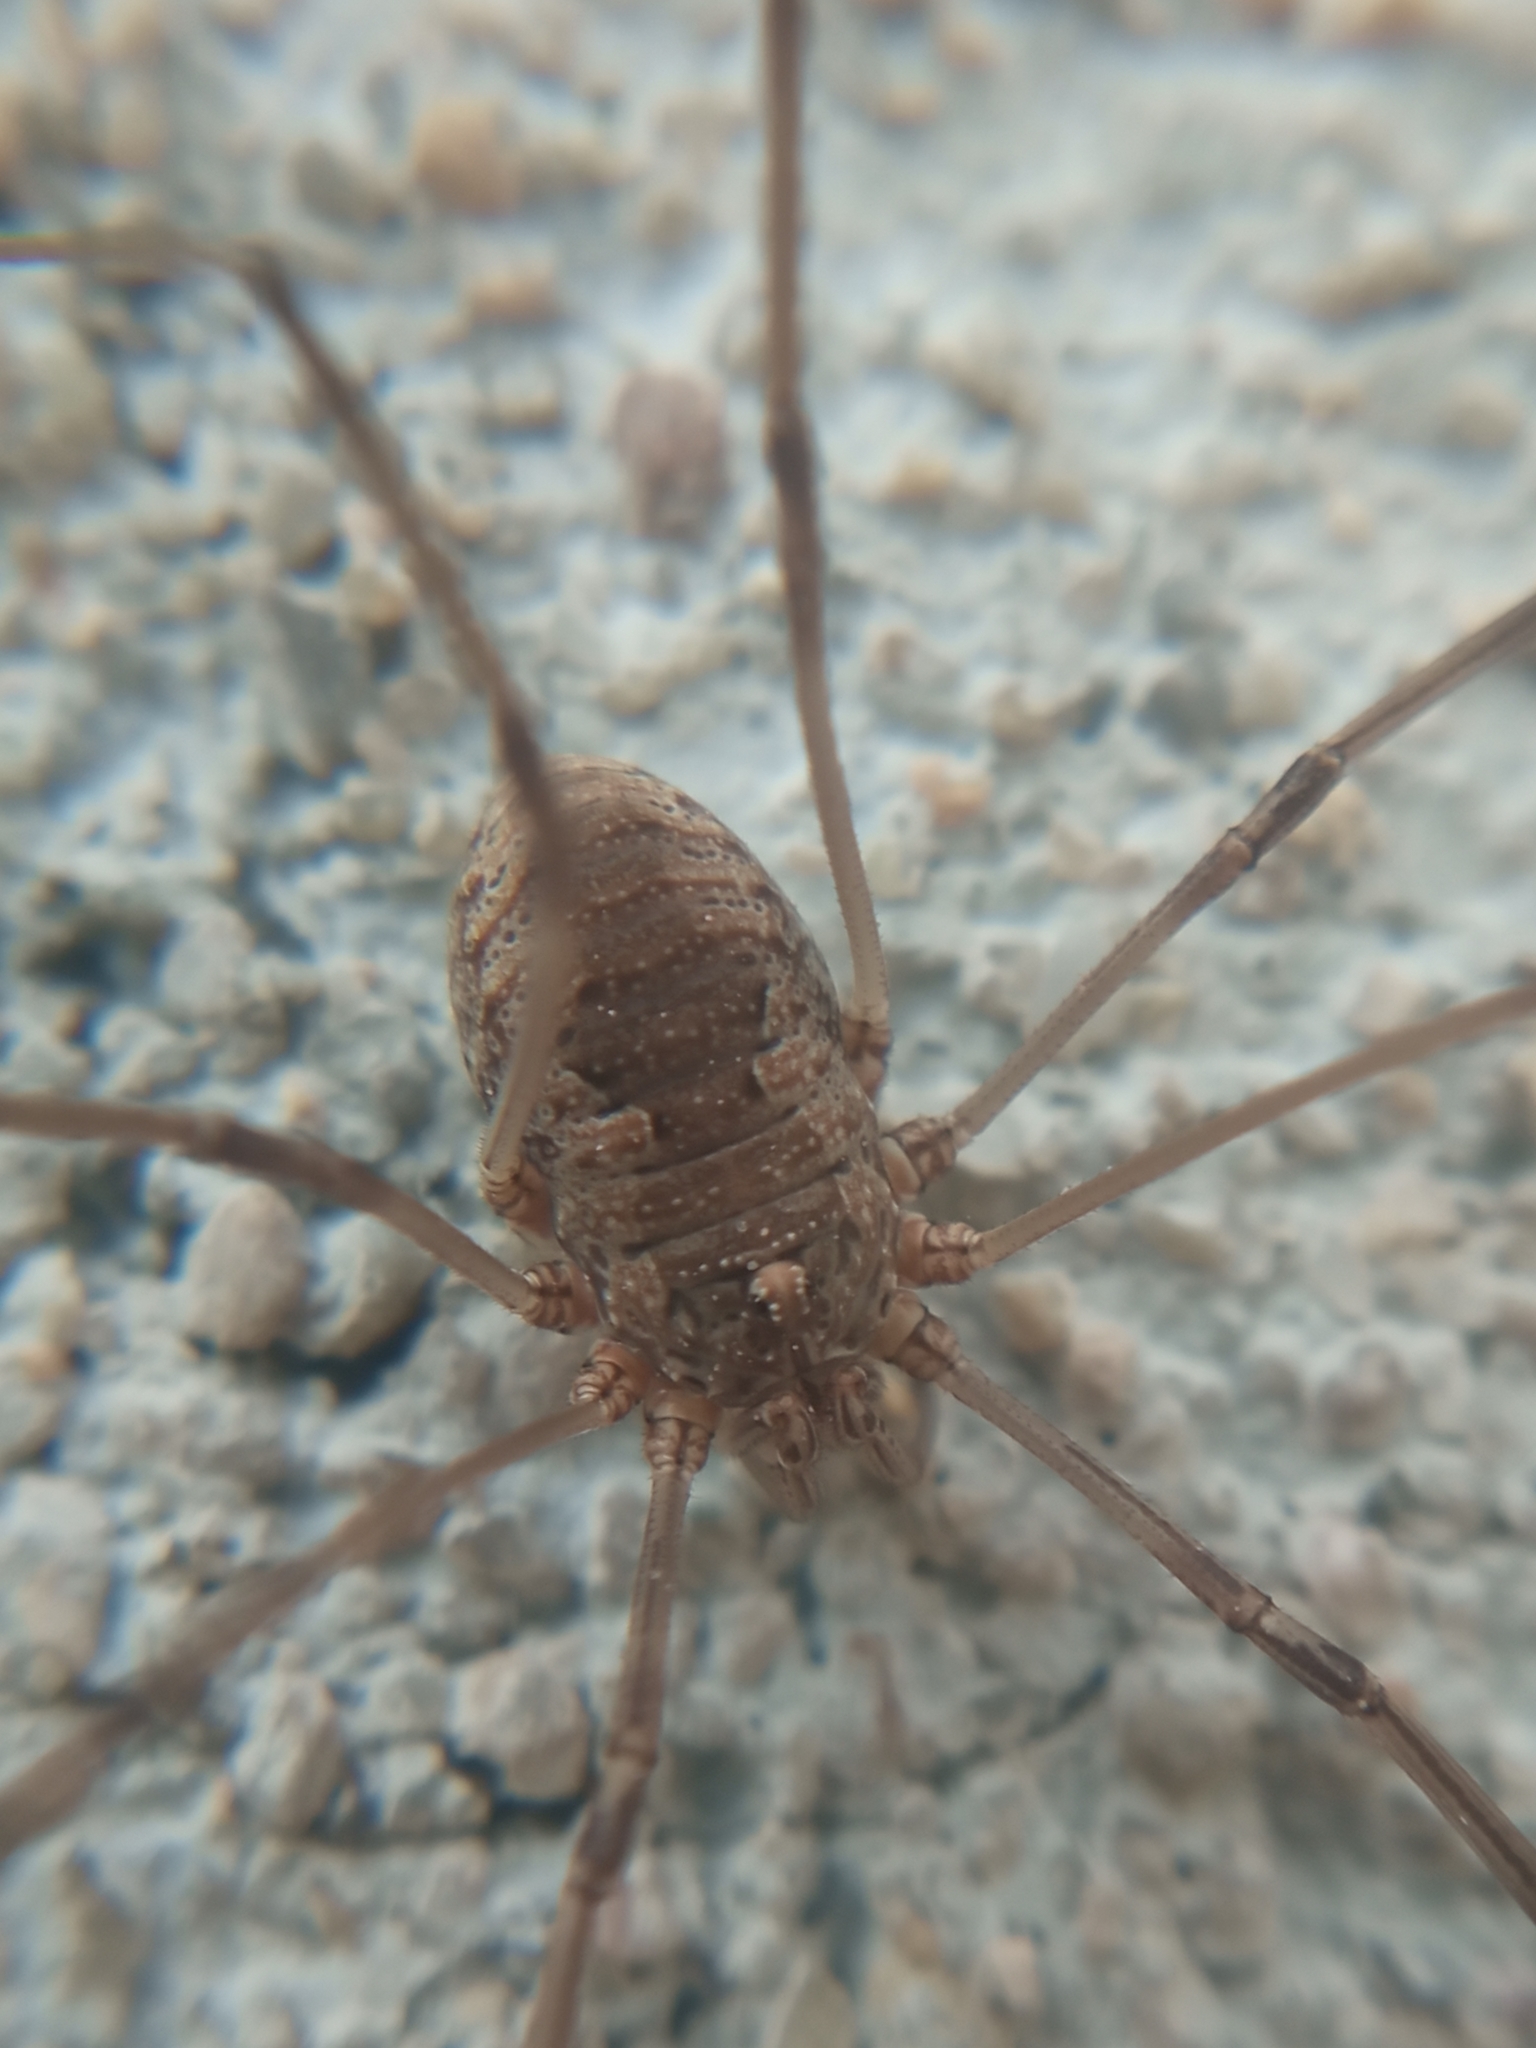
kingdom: Animalia
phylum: Arthropoda
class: Arachnida
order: Opiliones
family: Phalangiidae
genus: Phalangium
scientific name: Phalangium opilio
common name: Daddy longleg
